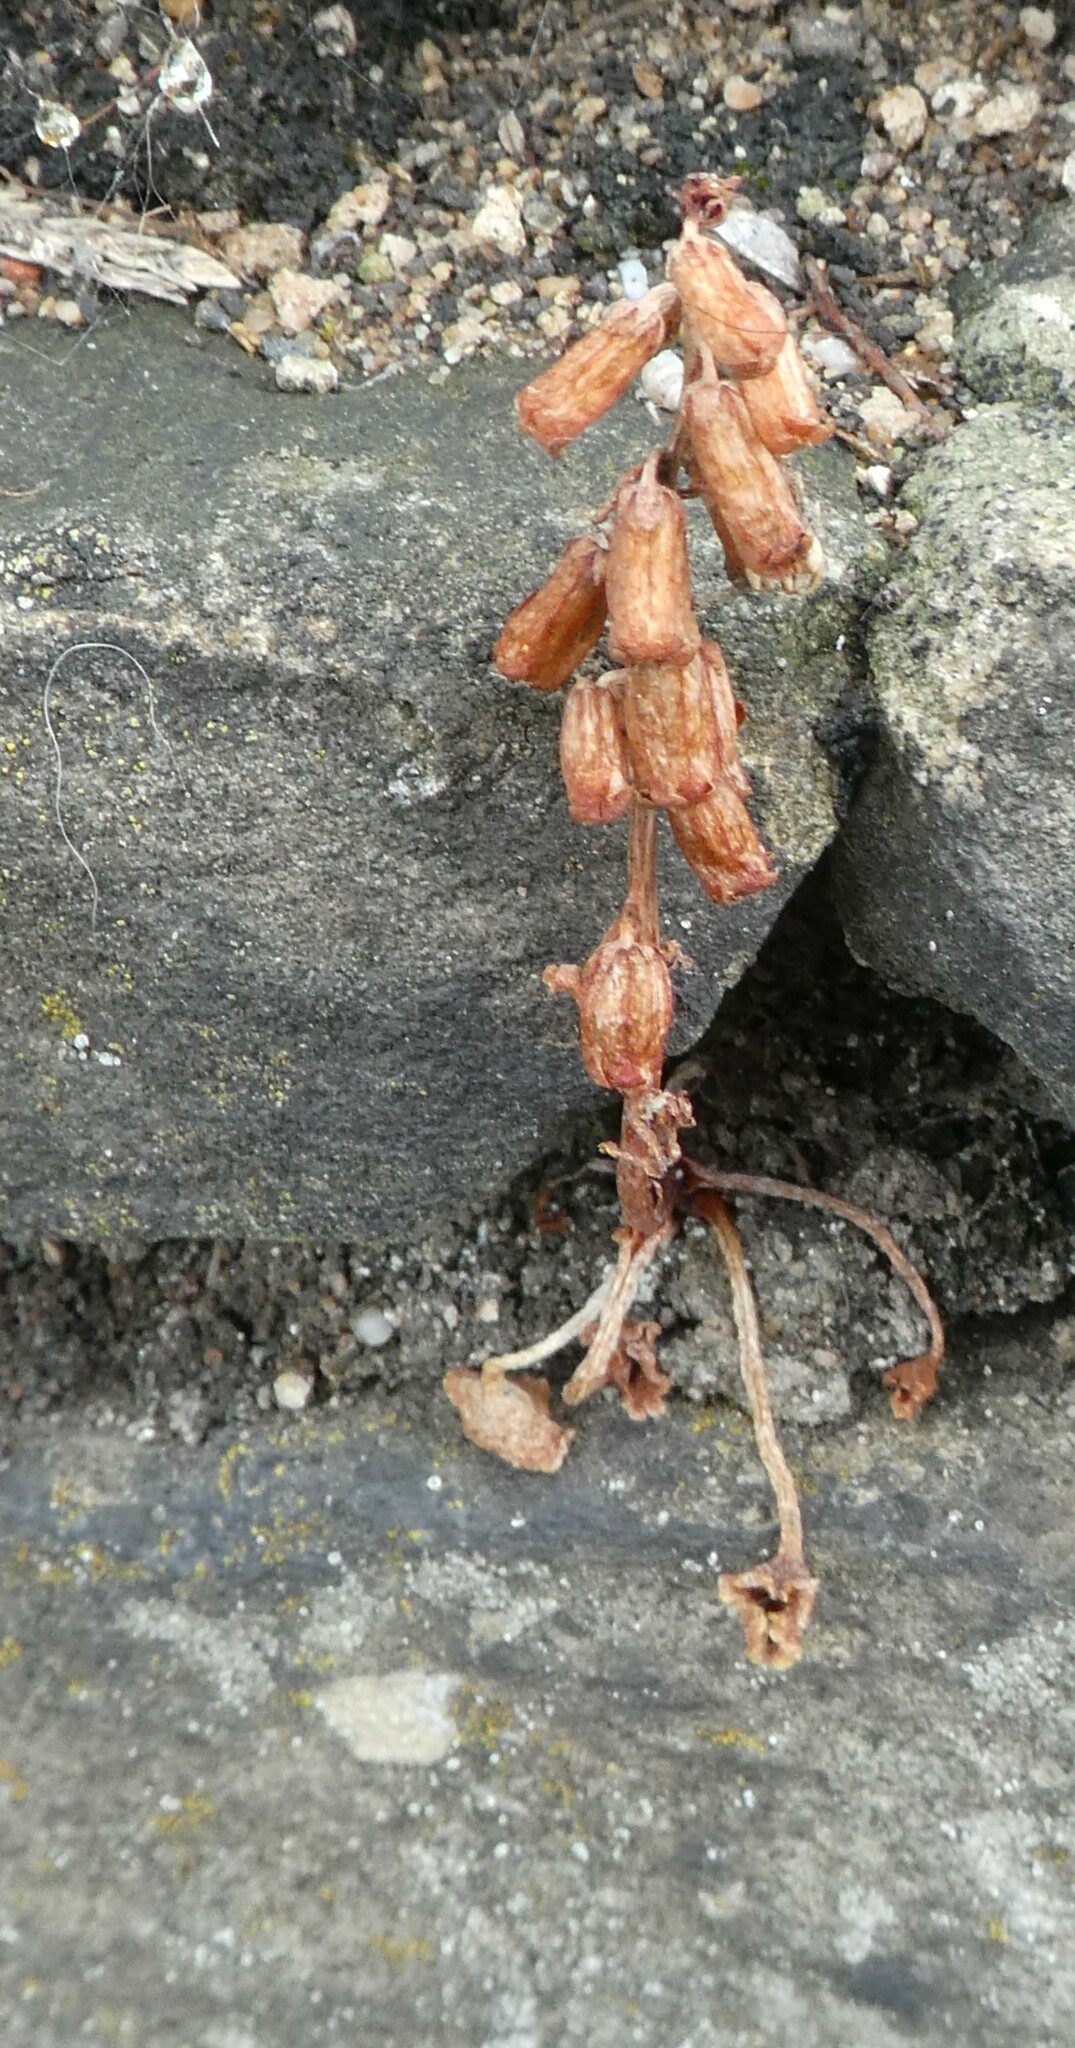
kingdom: Plantae
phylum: Tracheophyta
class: Magnoliopsida
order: Saxifragales
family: Crassulaceae
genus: Umbilicus
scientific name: Umbilicus rupestris
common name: Navelwort
